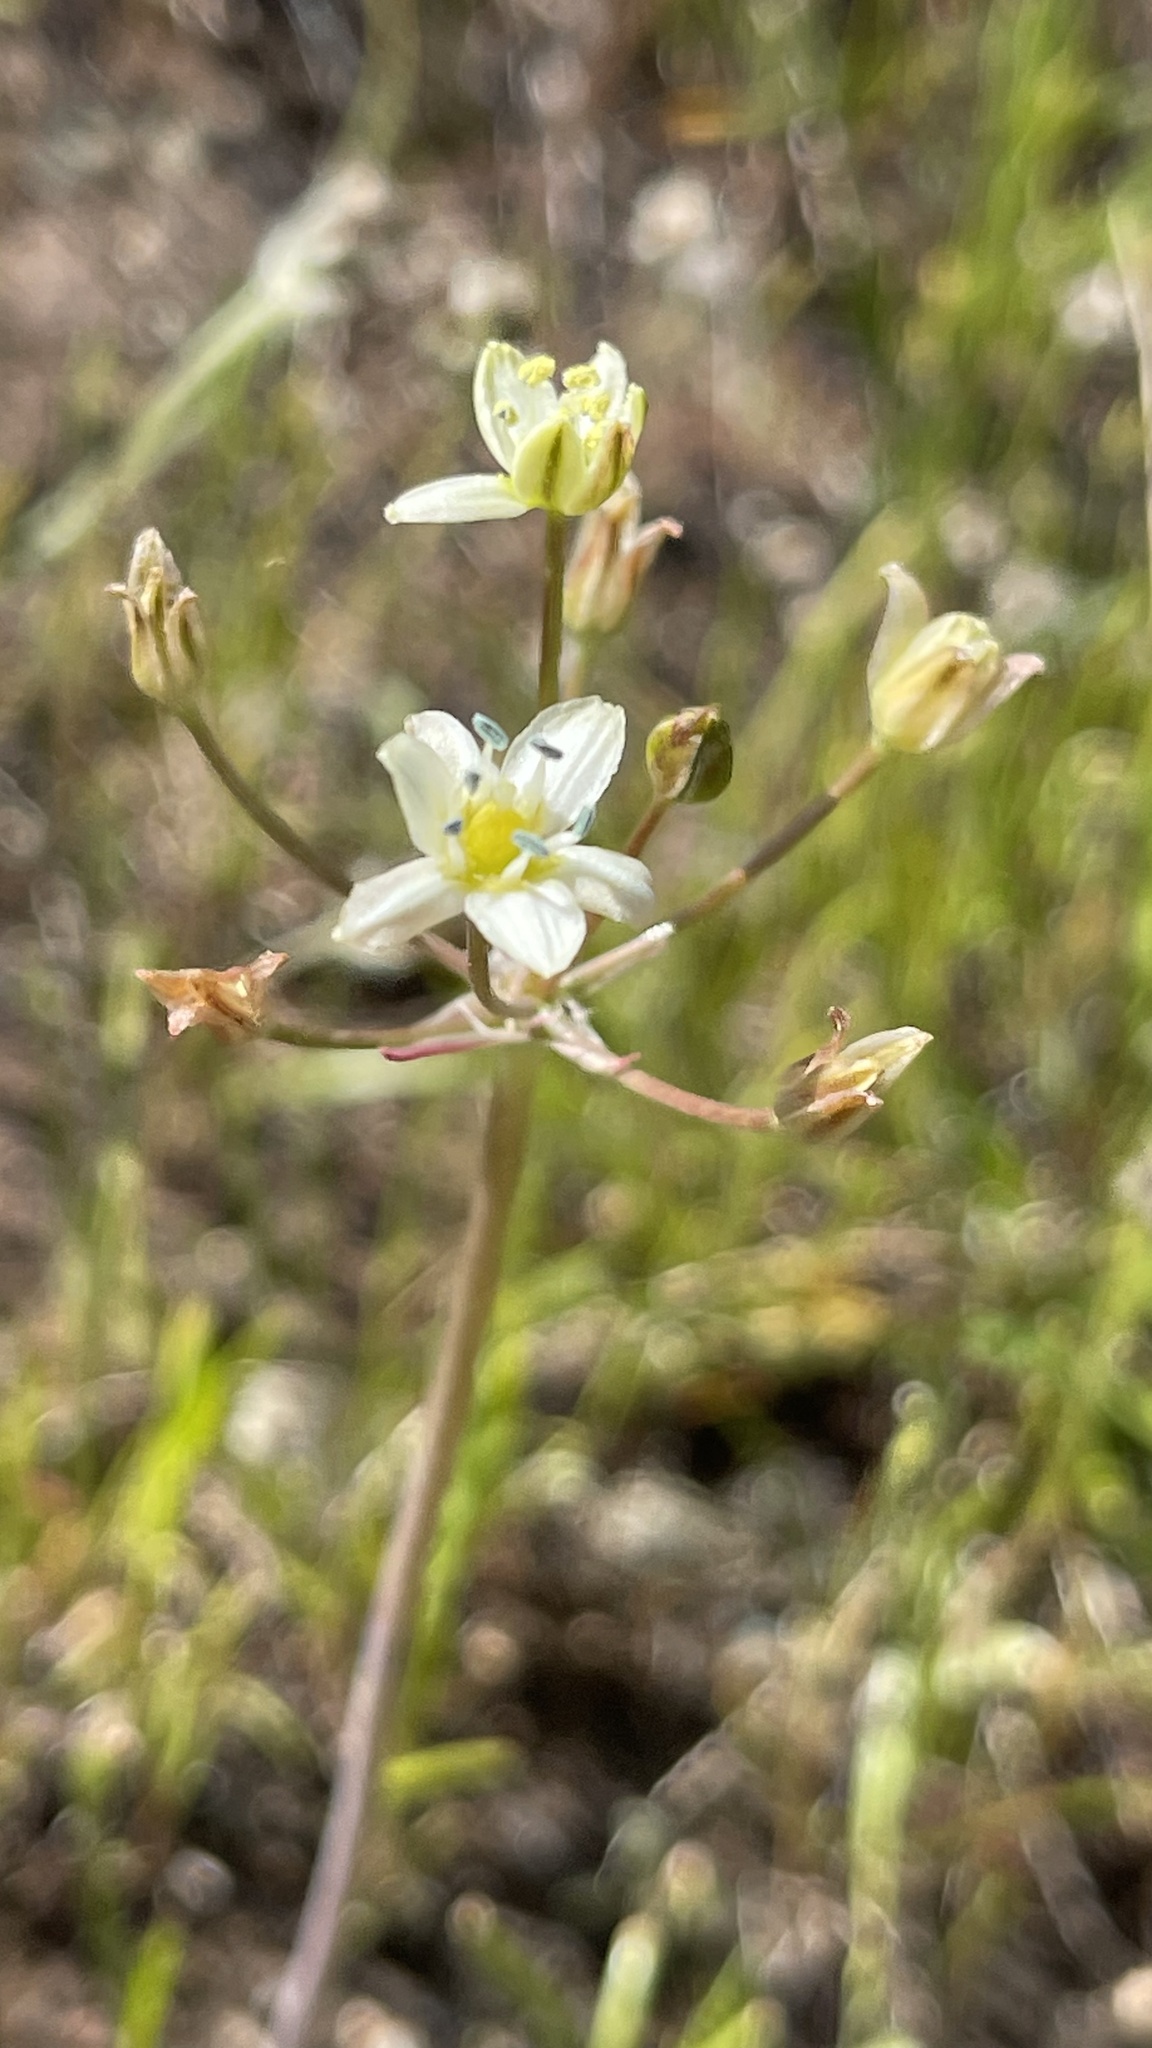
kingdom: Plantae
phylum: Tracheophyta
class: Liliopsida
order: Asparagales
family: Asparagaceae
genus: Muilla
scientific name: Muilla maritima
